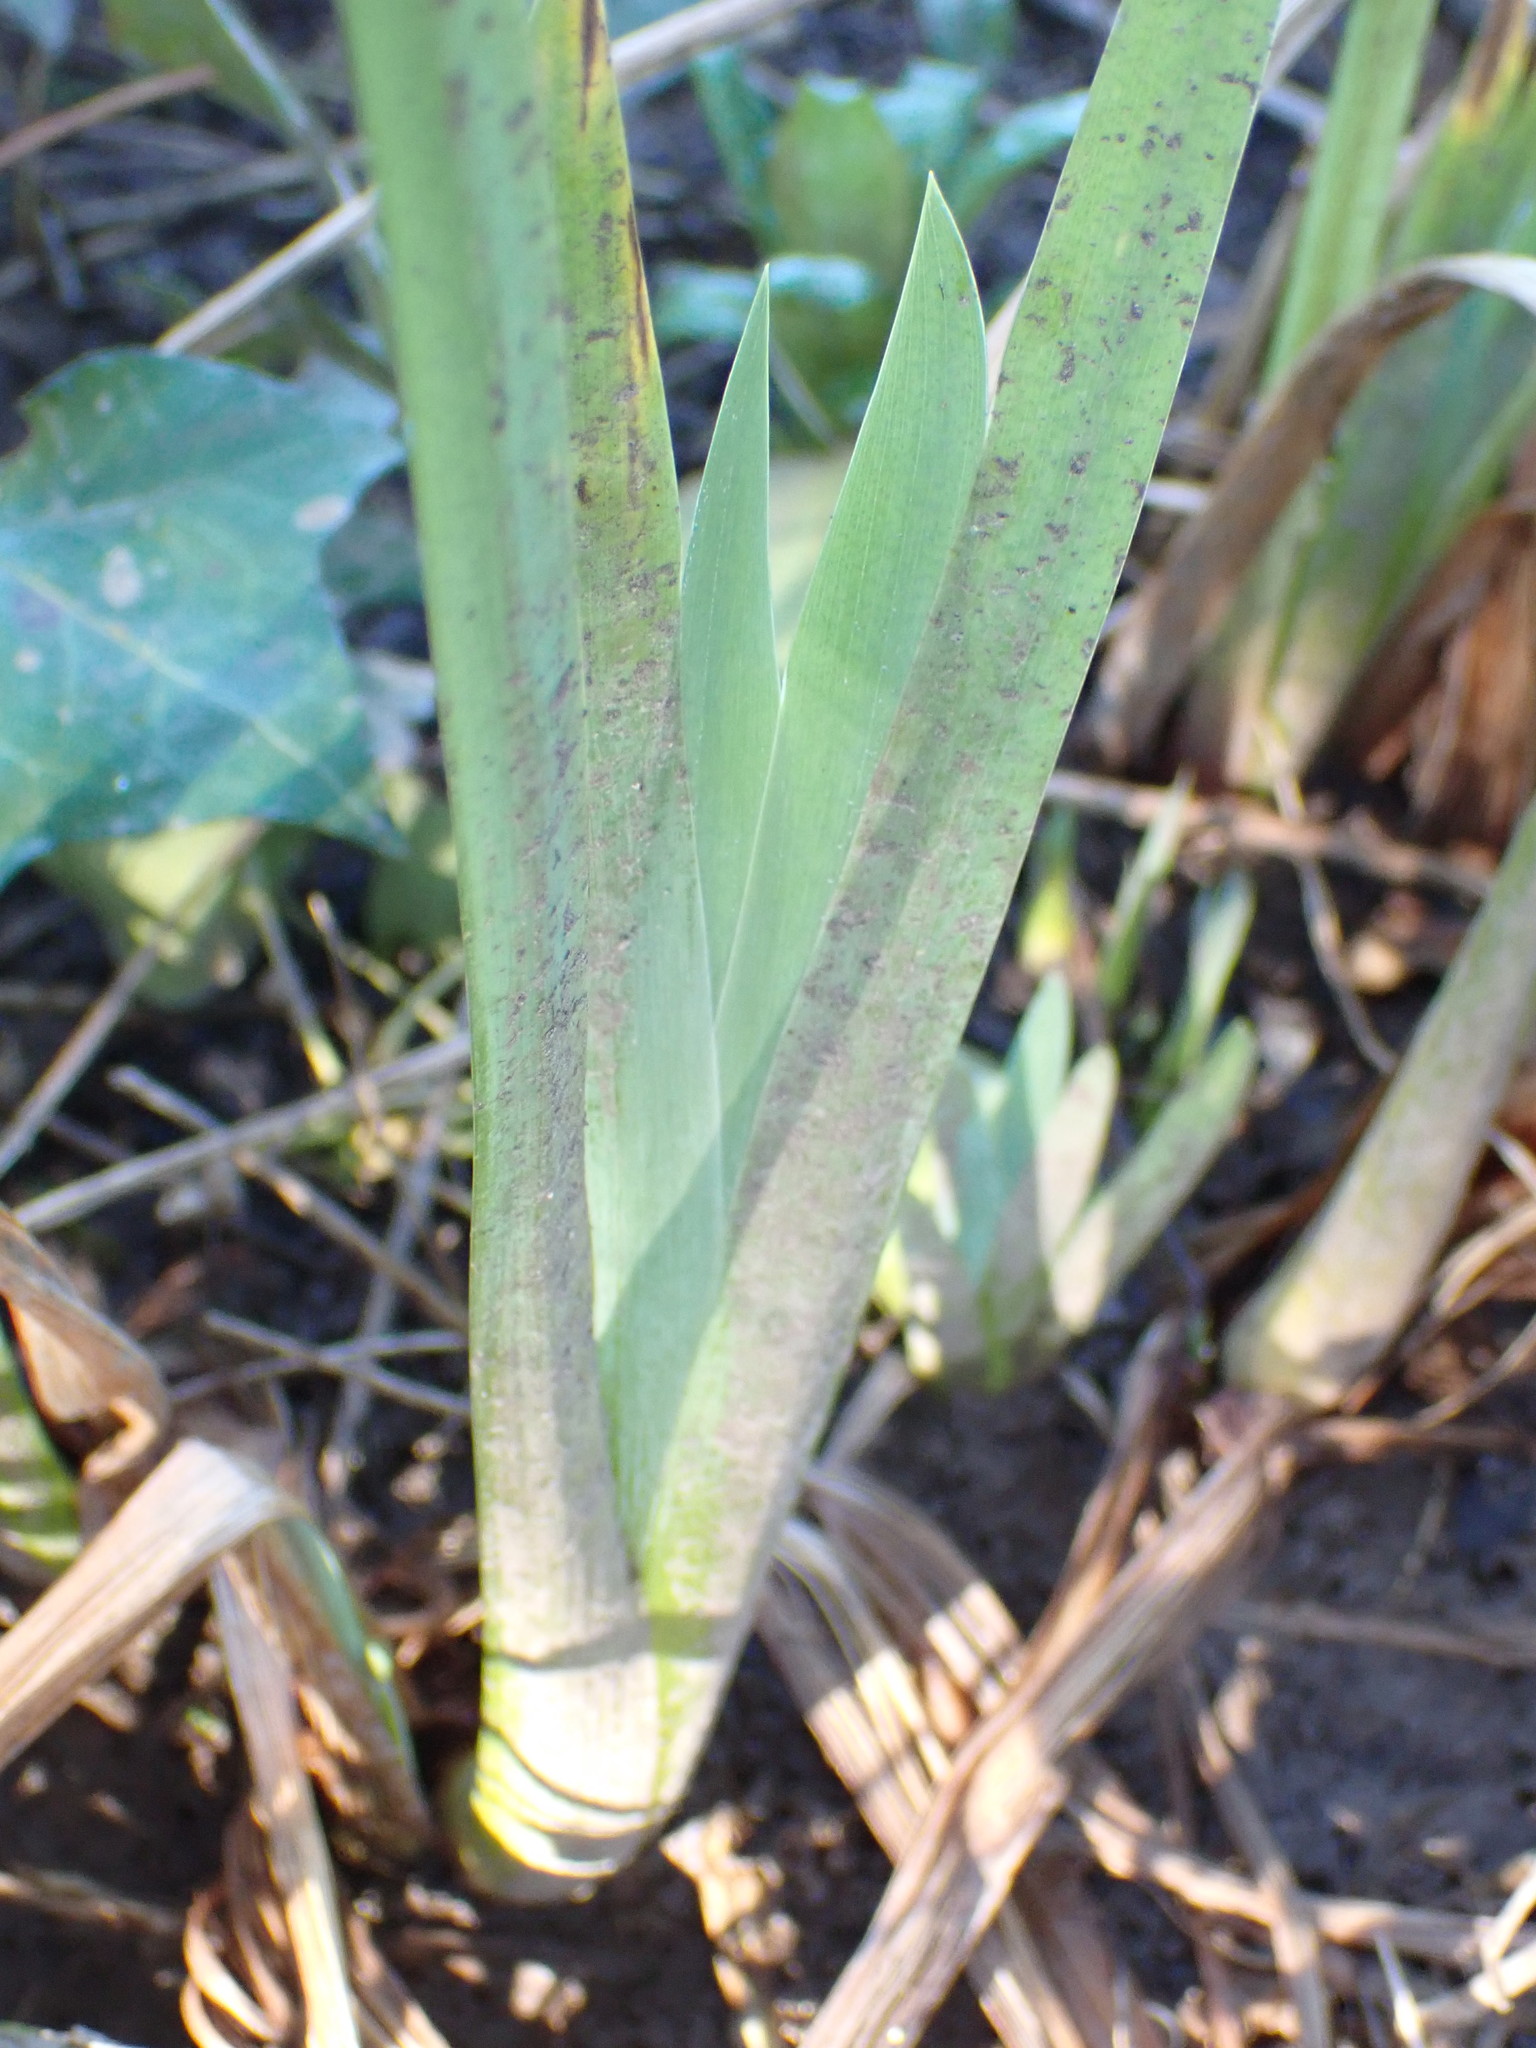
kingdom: Plantae
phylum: Tracheophyta
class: Liliopsida
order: Asparagales
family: Iridaceae
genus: Iris
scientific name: Iris pseudacorus
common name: Yellow flag
